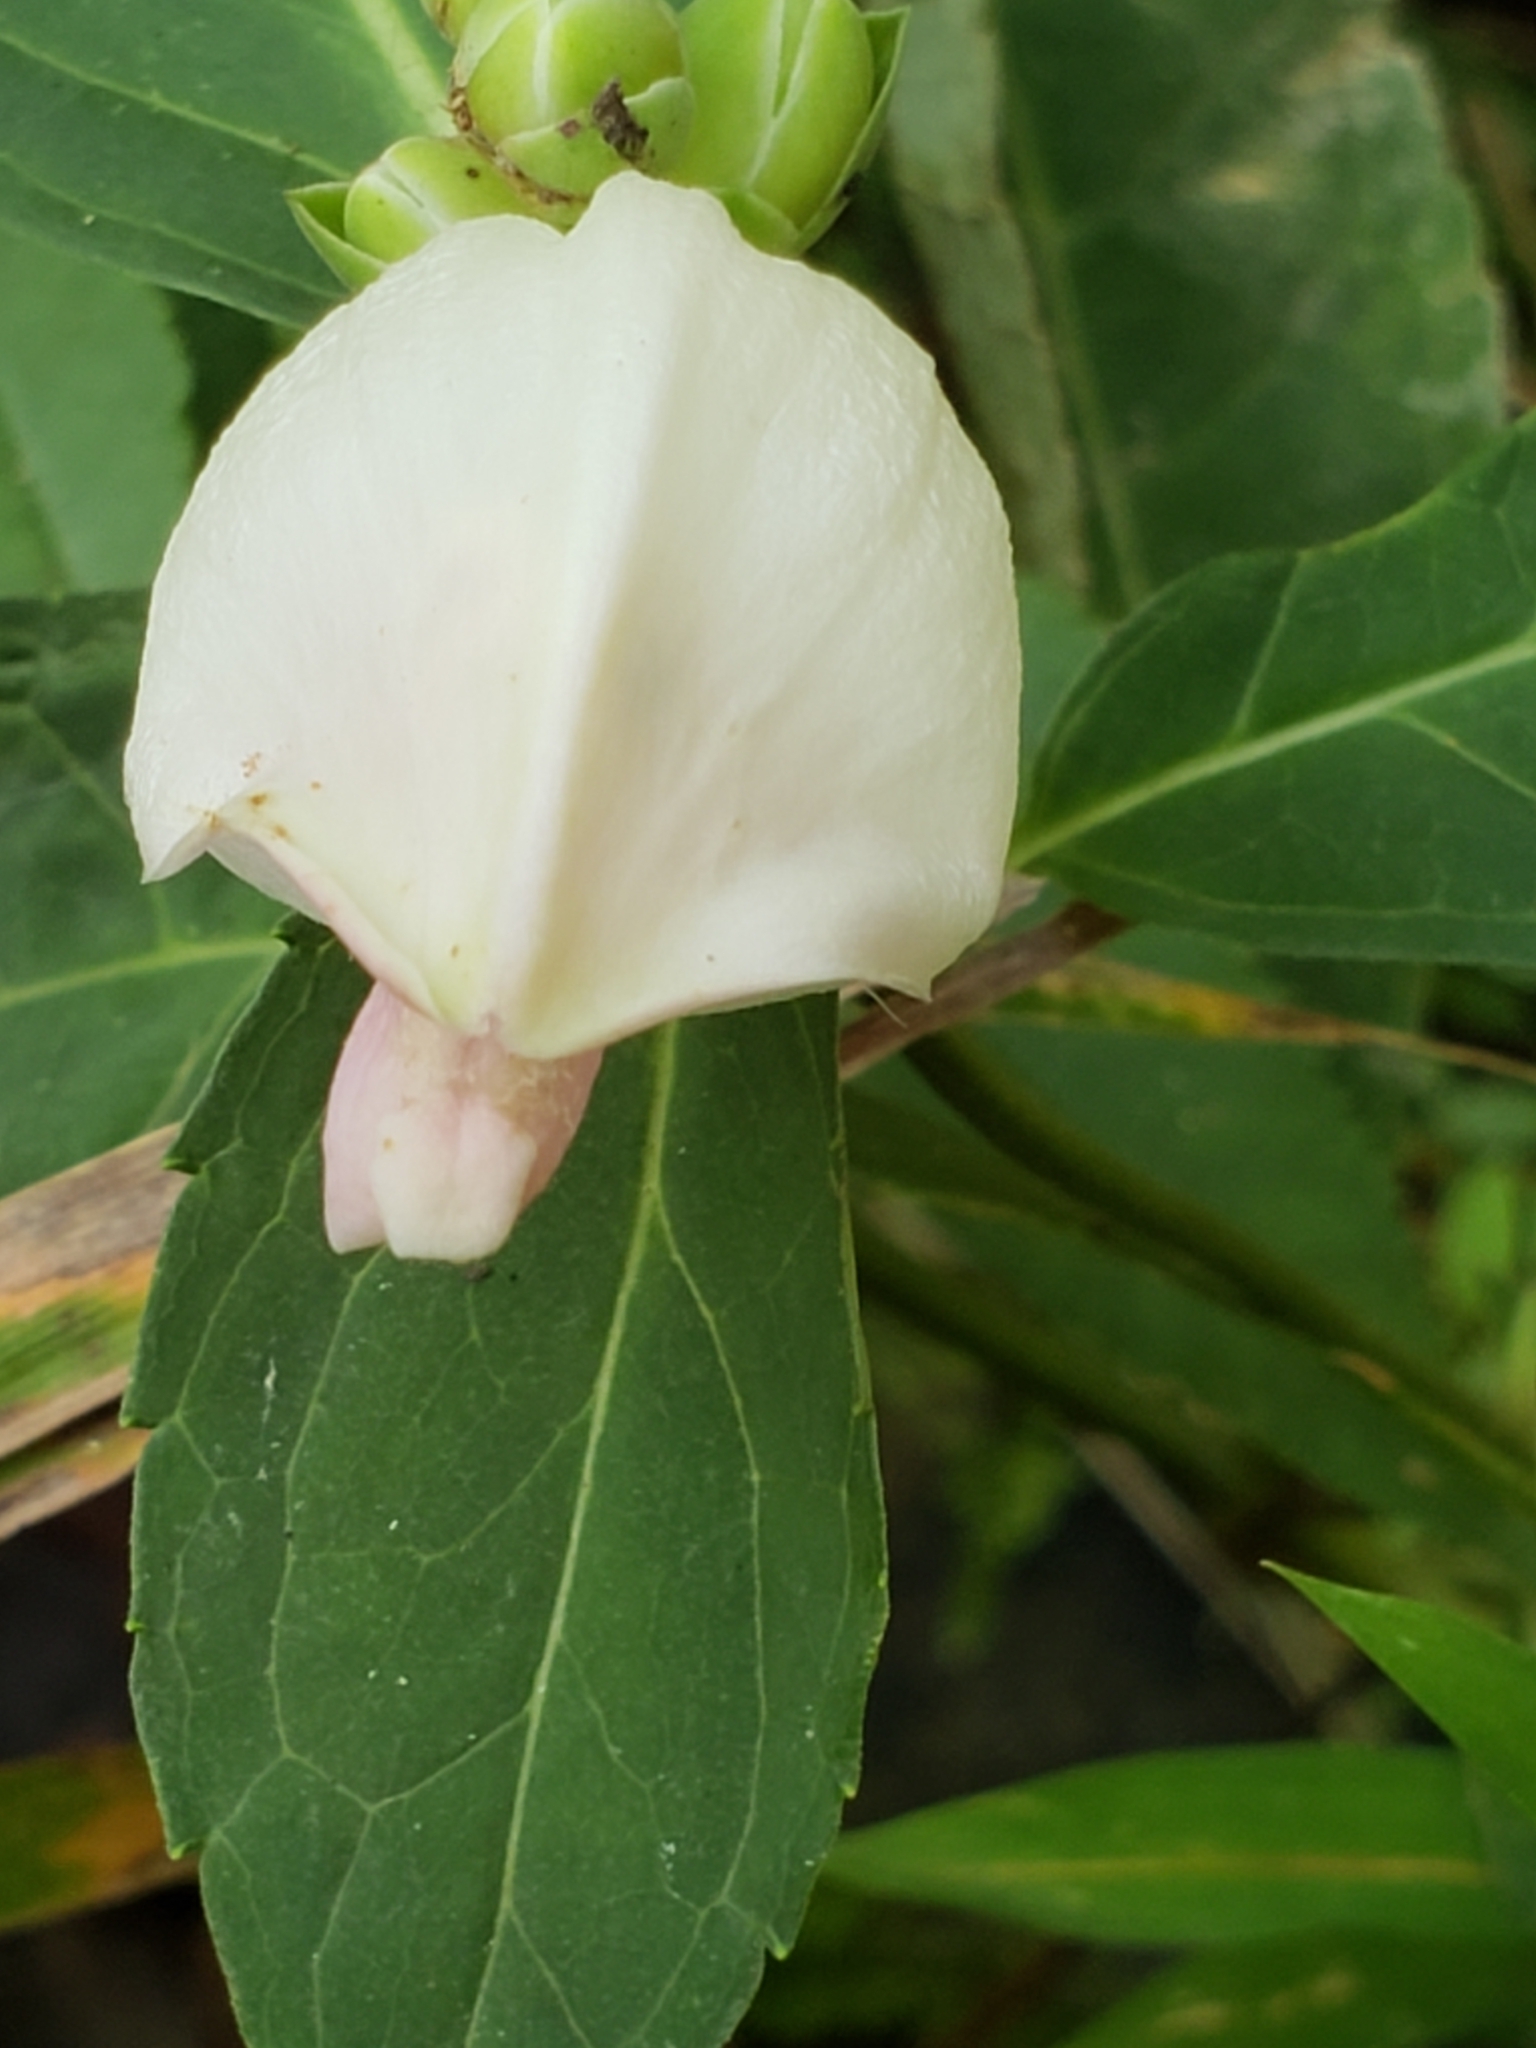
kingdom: Plantae
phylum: Tracheophyta
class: Magnoliopsida
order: Lamiales
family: Plantaginaceae
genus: Chelone
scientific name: Chelone glabra
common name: Snakehead
